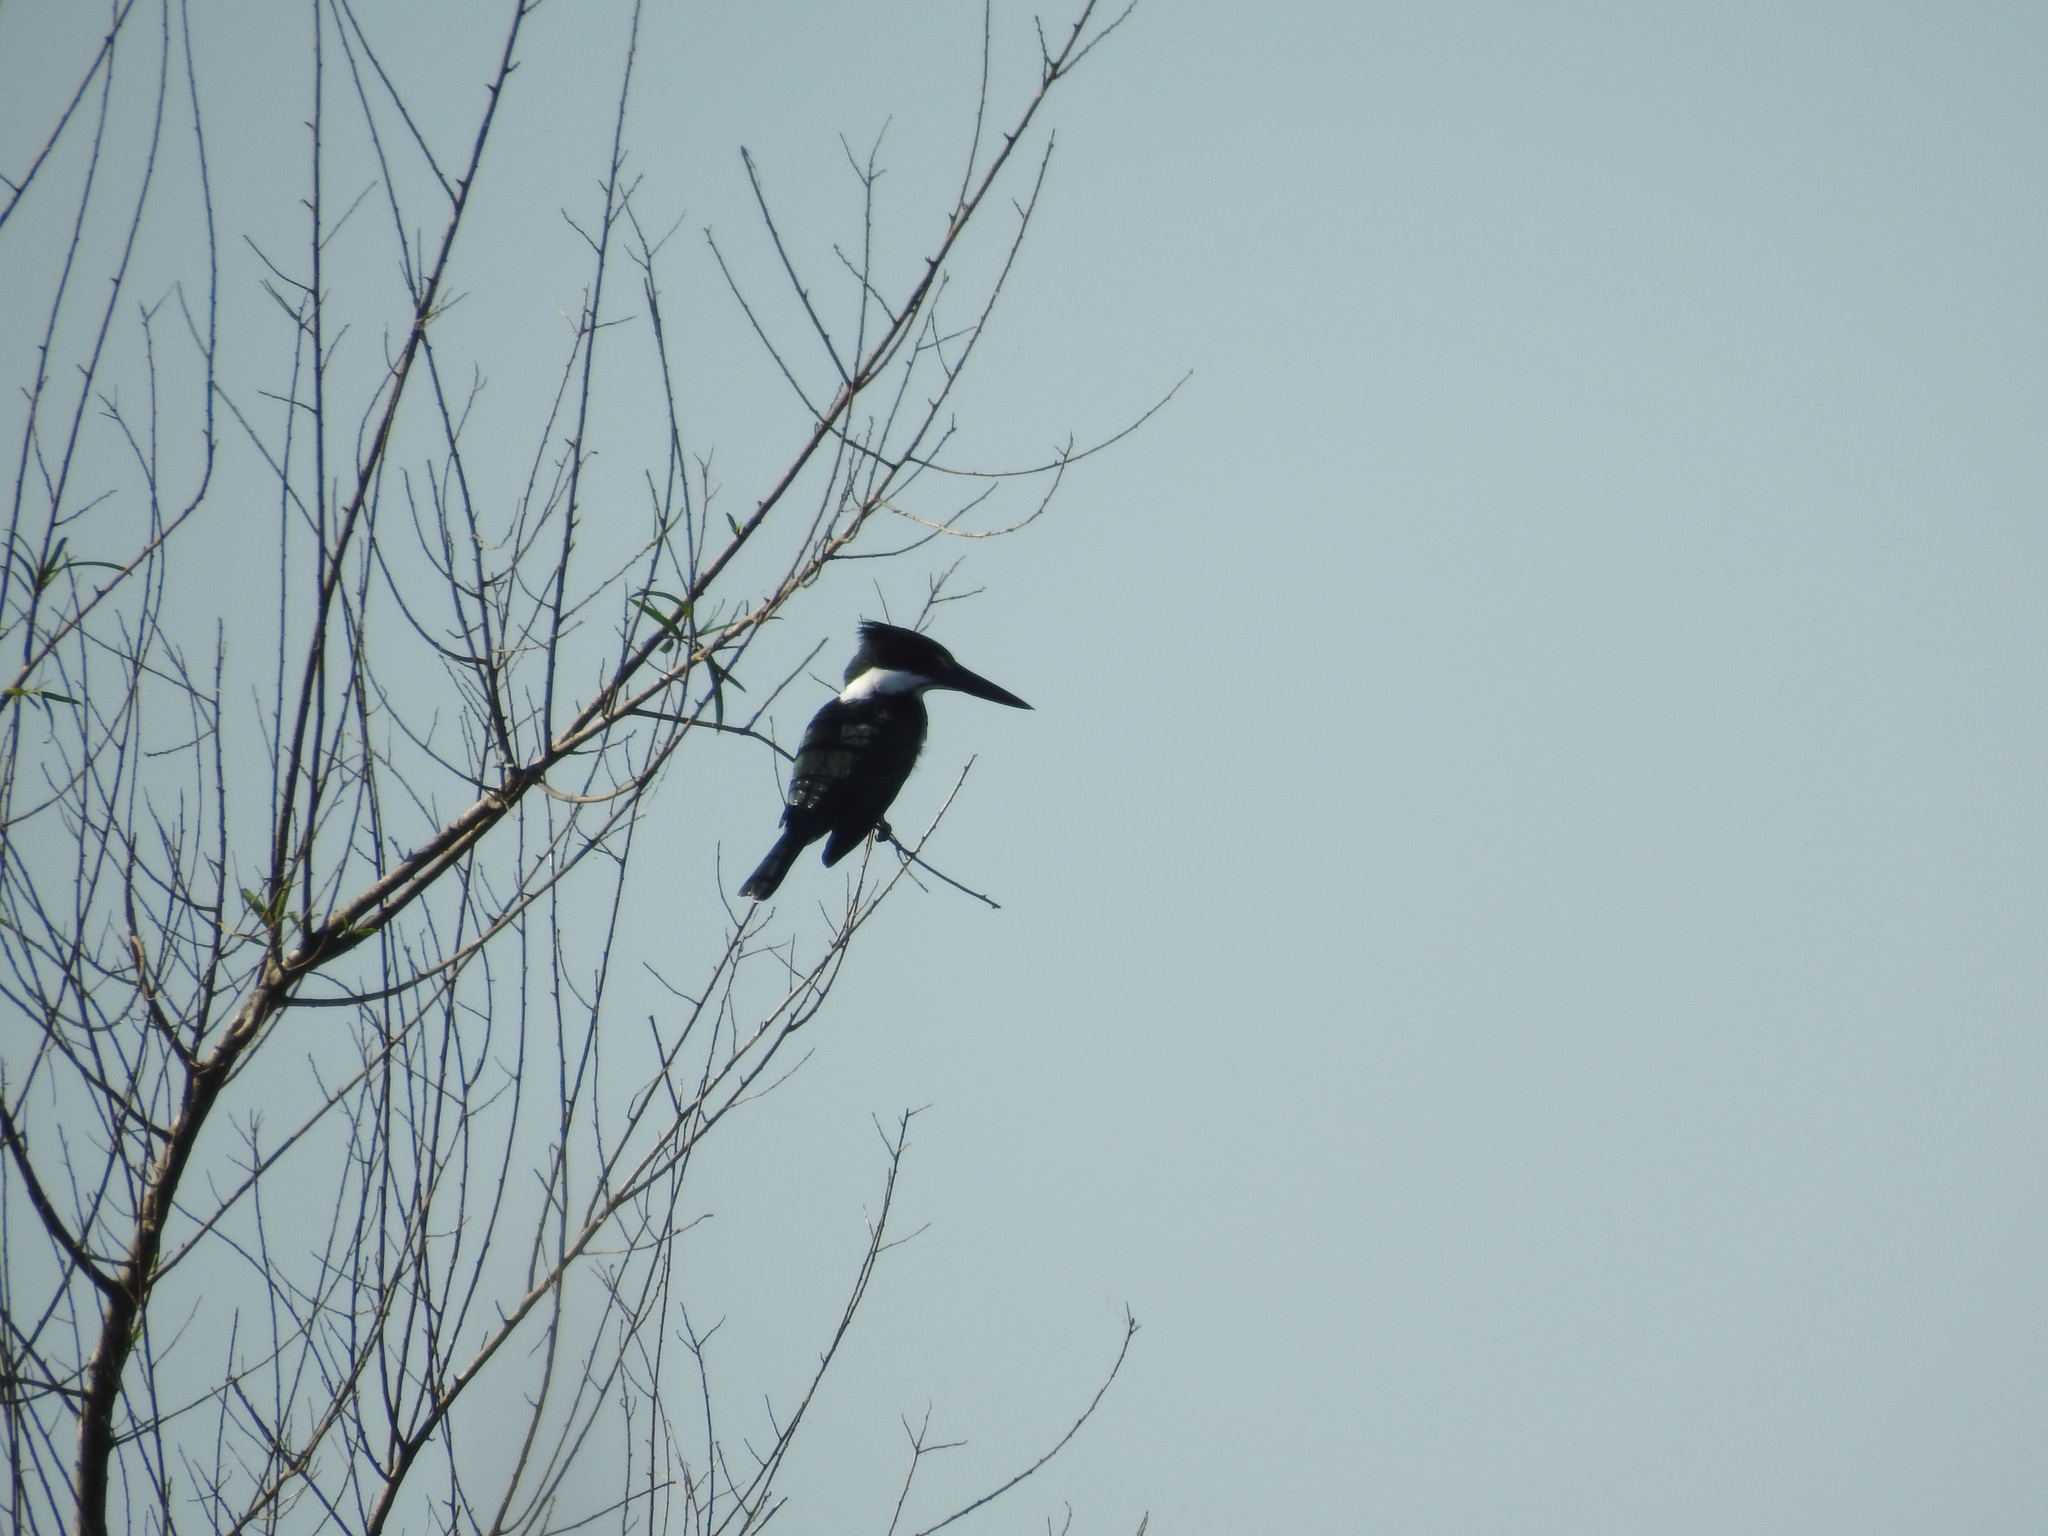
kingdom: Animalia
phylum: Chordata
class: Aves
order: Coraciiformes
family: Alcedinidae
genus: Chloroceryle
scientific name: Chloroceryle amazona
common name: Amazon kingfisher
